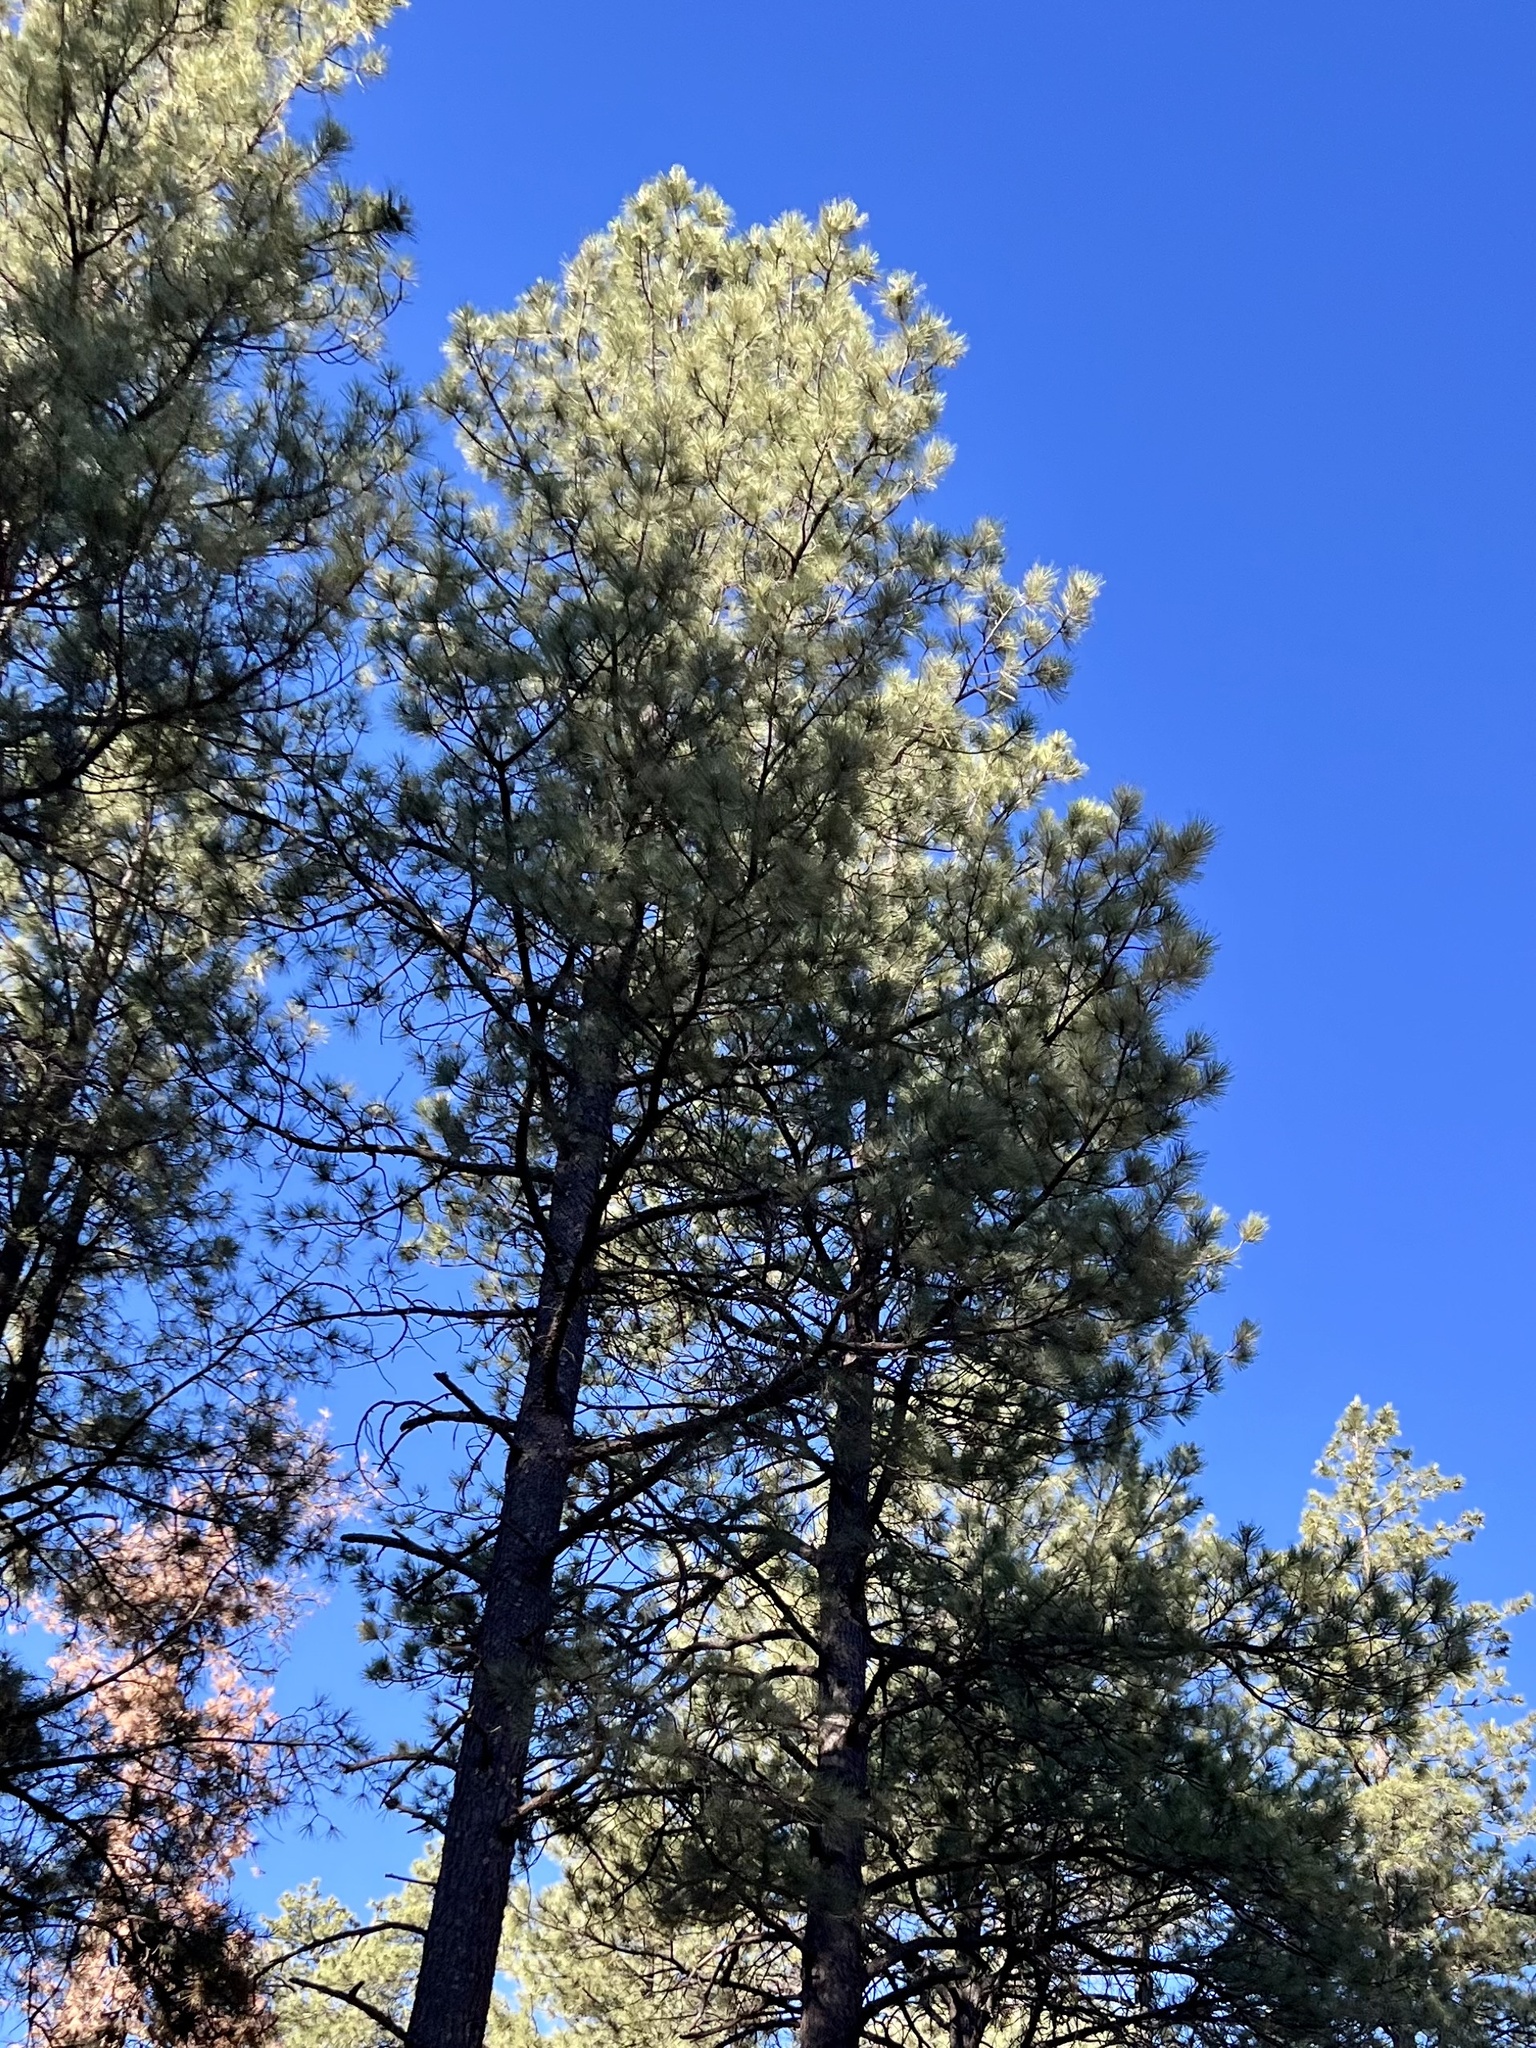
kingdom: Plantae
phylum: Tracheophyta
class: Pinopsida
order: Pinales
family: Pinaceae
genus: Pinus
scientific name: Pinus ponderosa
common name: Western yellow-pine
